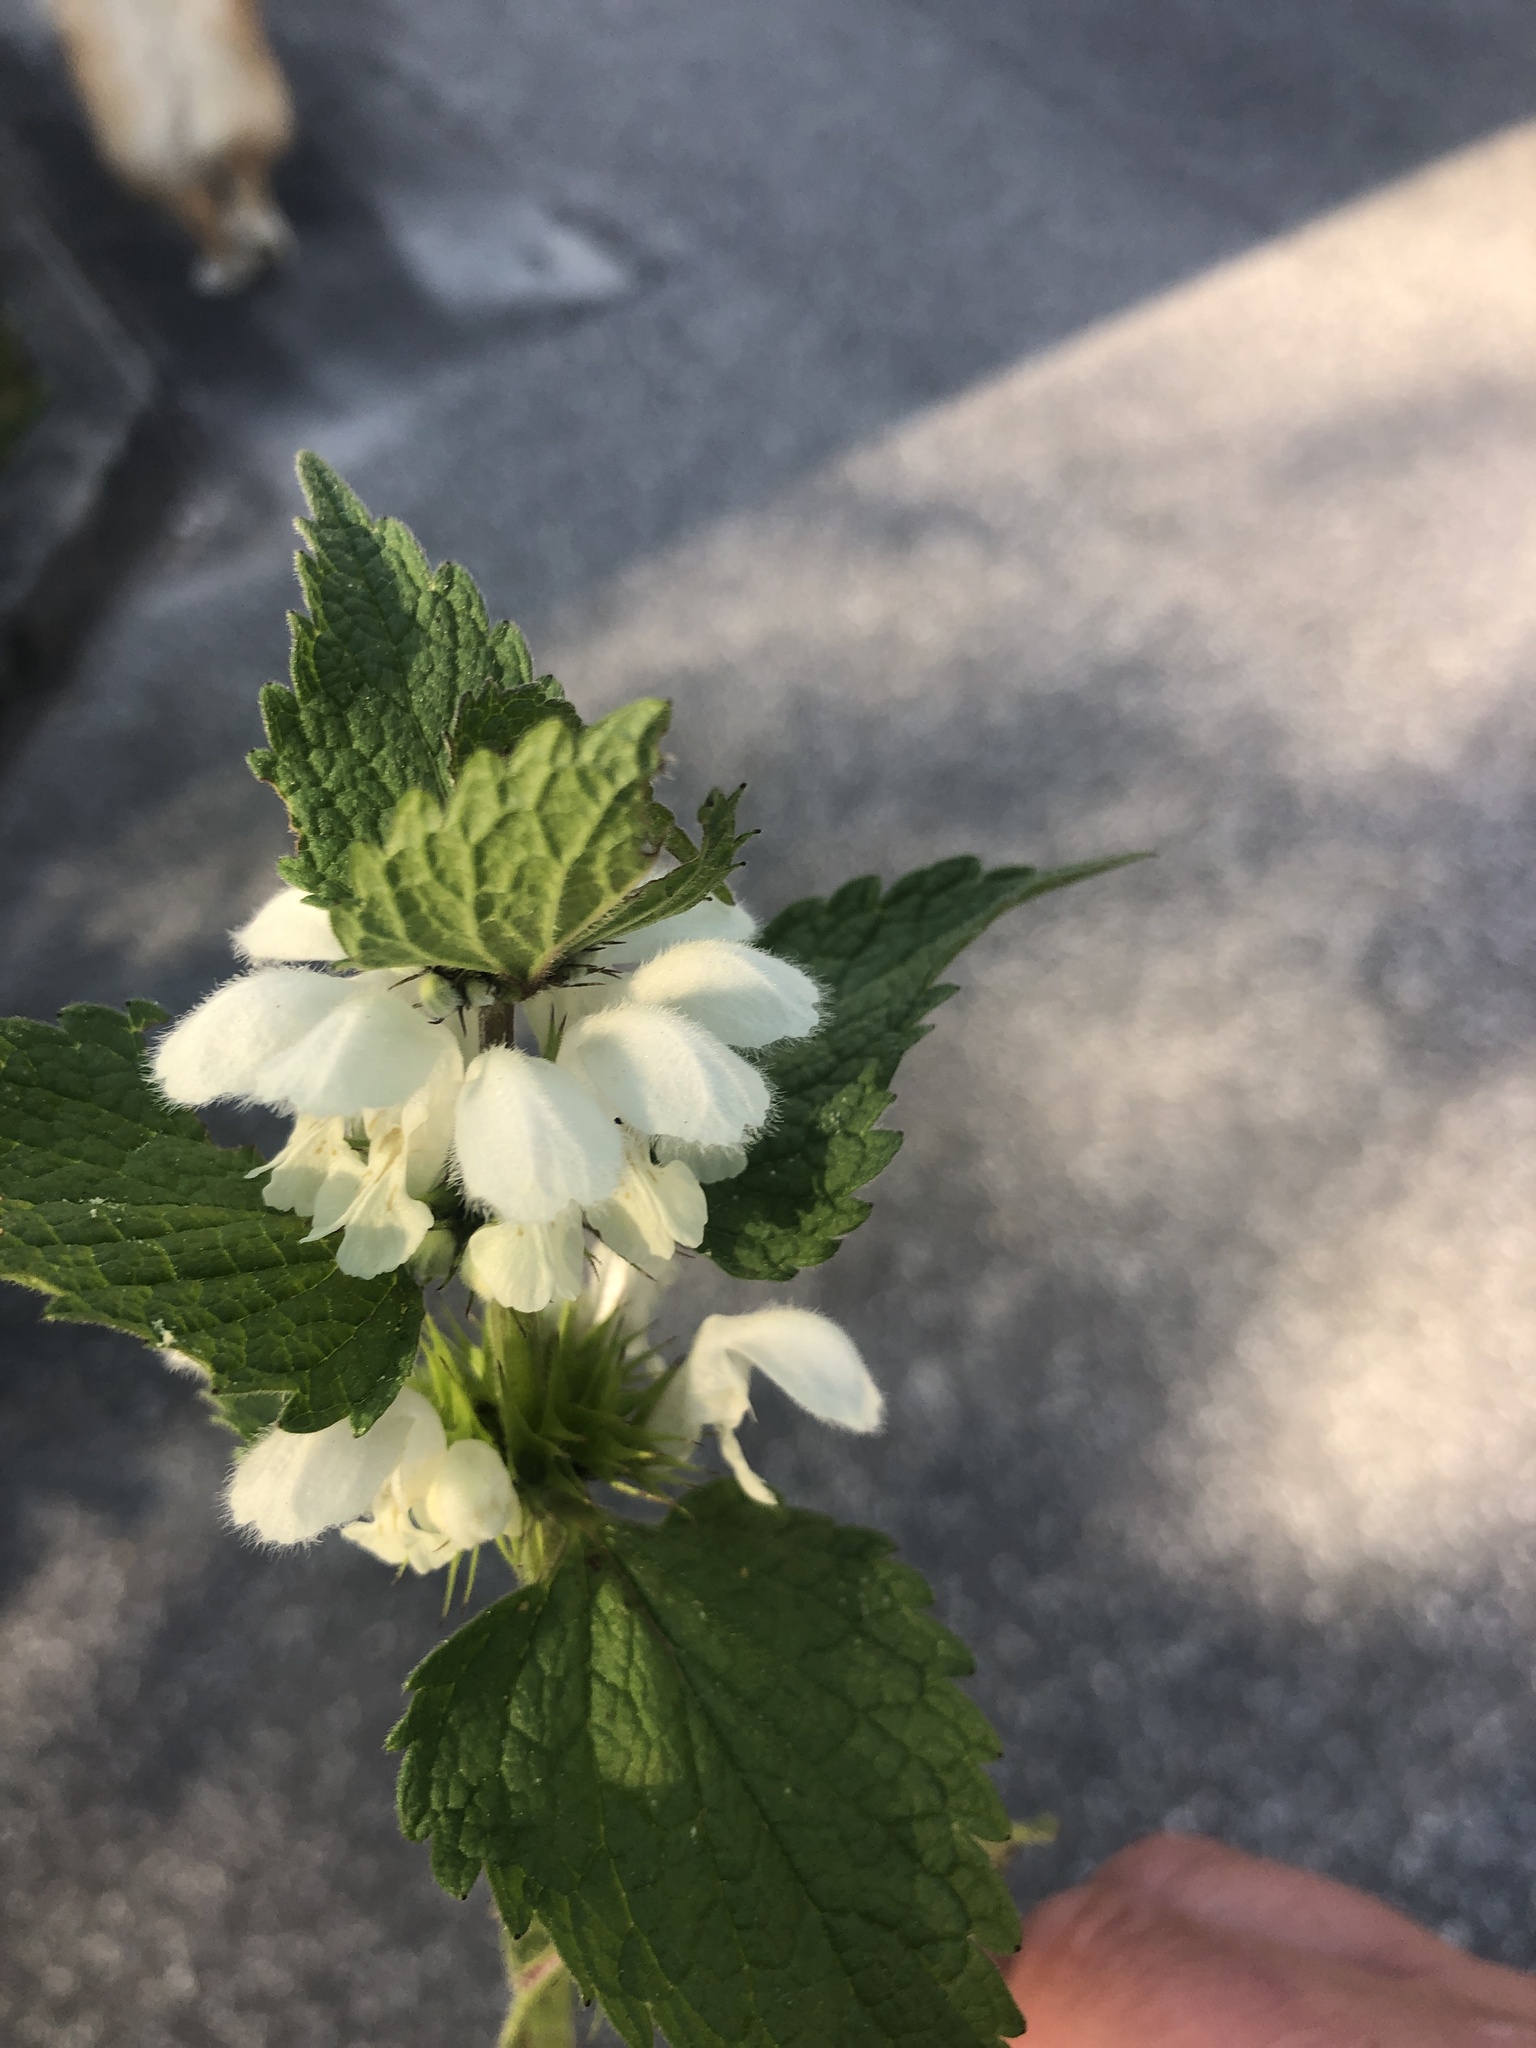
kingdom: Plantae
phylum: Tracheophyta
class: Magnoliopsida
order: Lamiales
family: Lamiaceae
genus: Lamium
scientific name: Lamium album
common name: White dead-nettle
